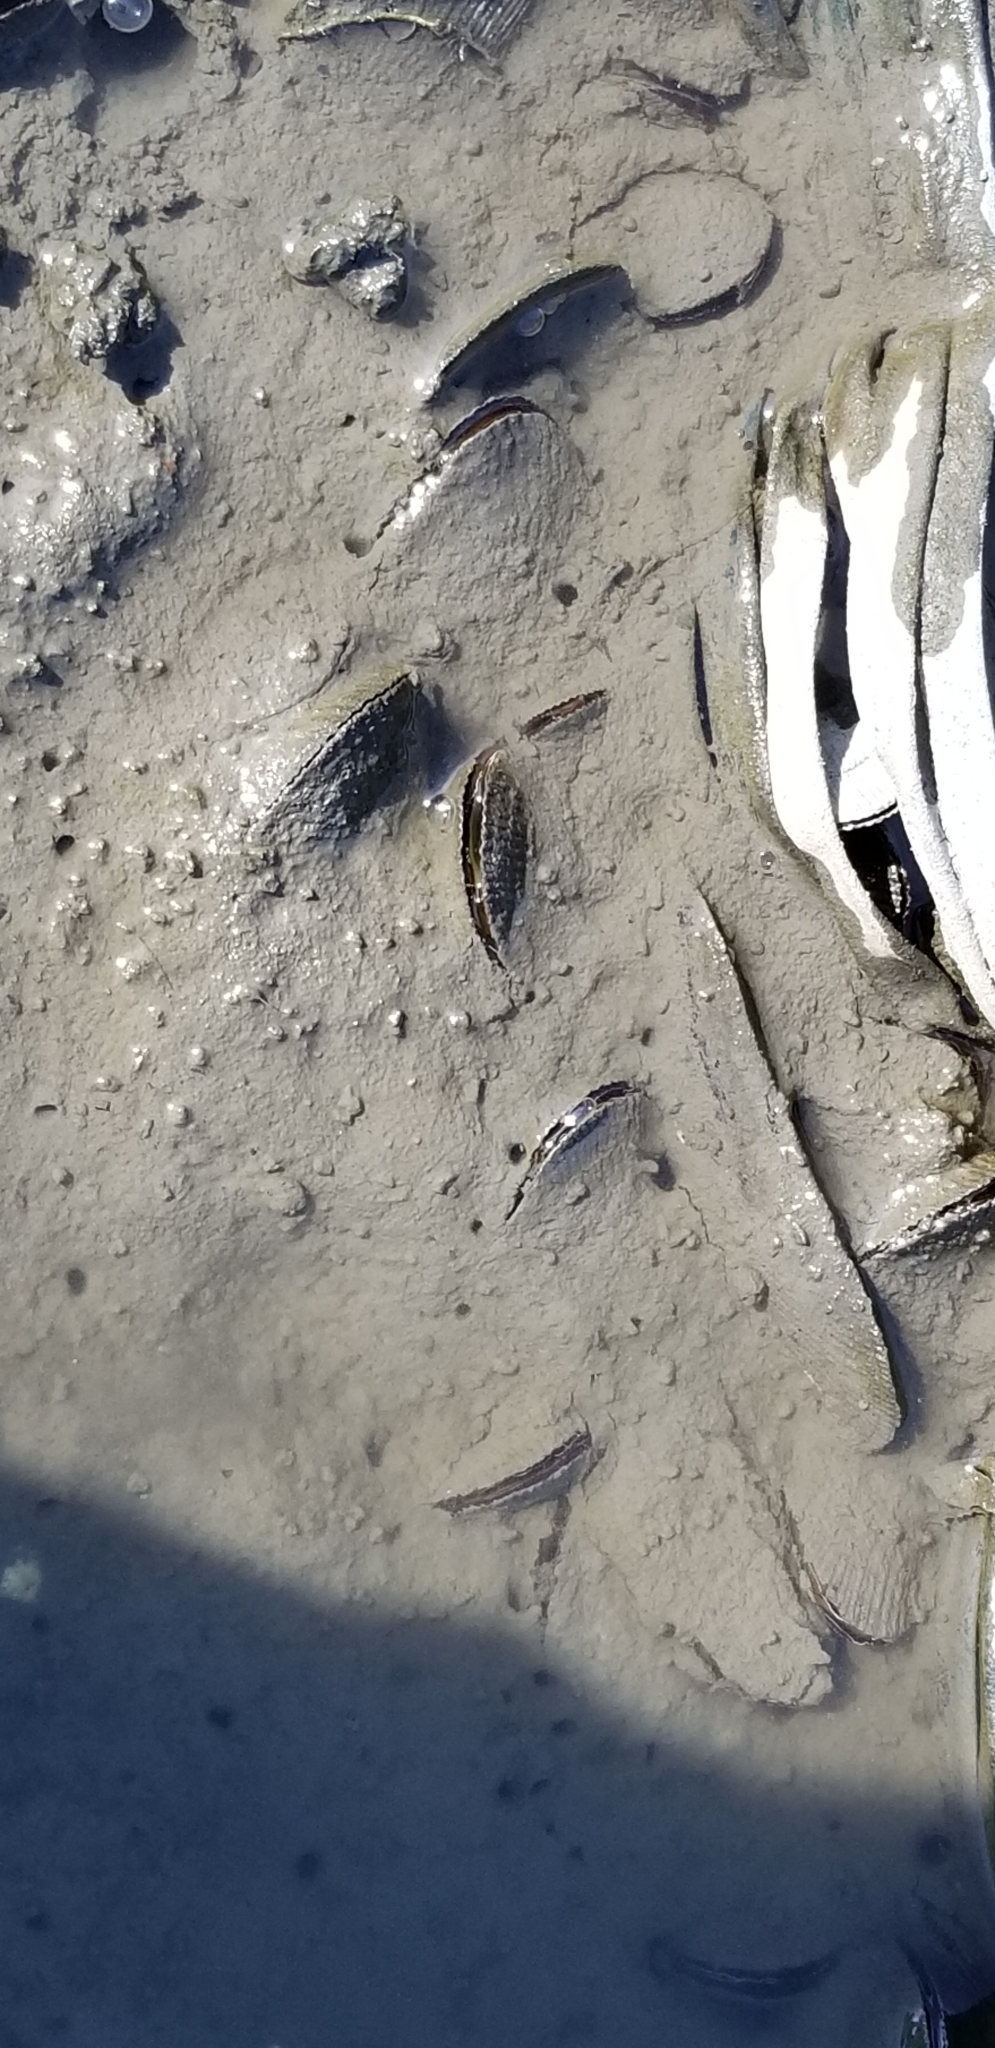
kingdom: Animalia
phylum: Mollusca
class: Bivalvia
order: Mytilida
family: Mytilidae
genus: Geukensia
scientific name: Geukensia demissa
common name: Ribbed mussel
